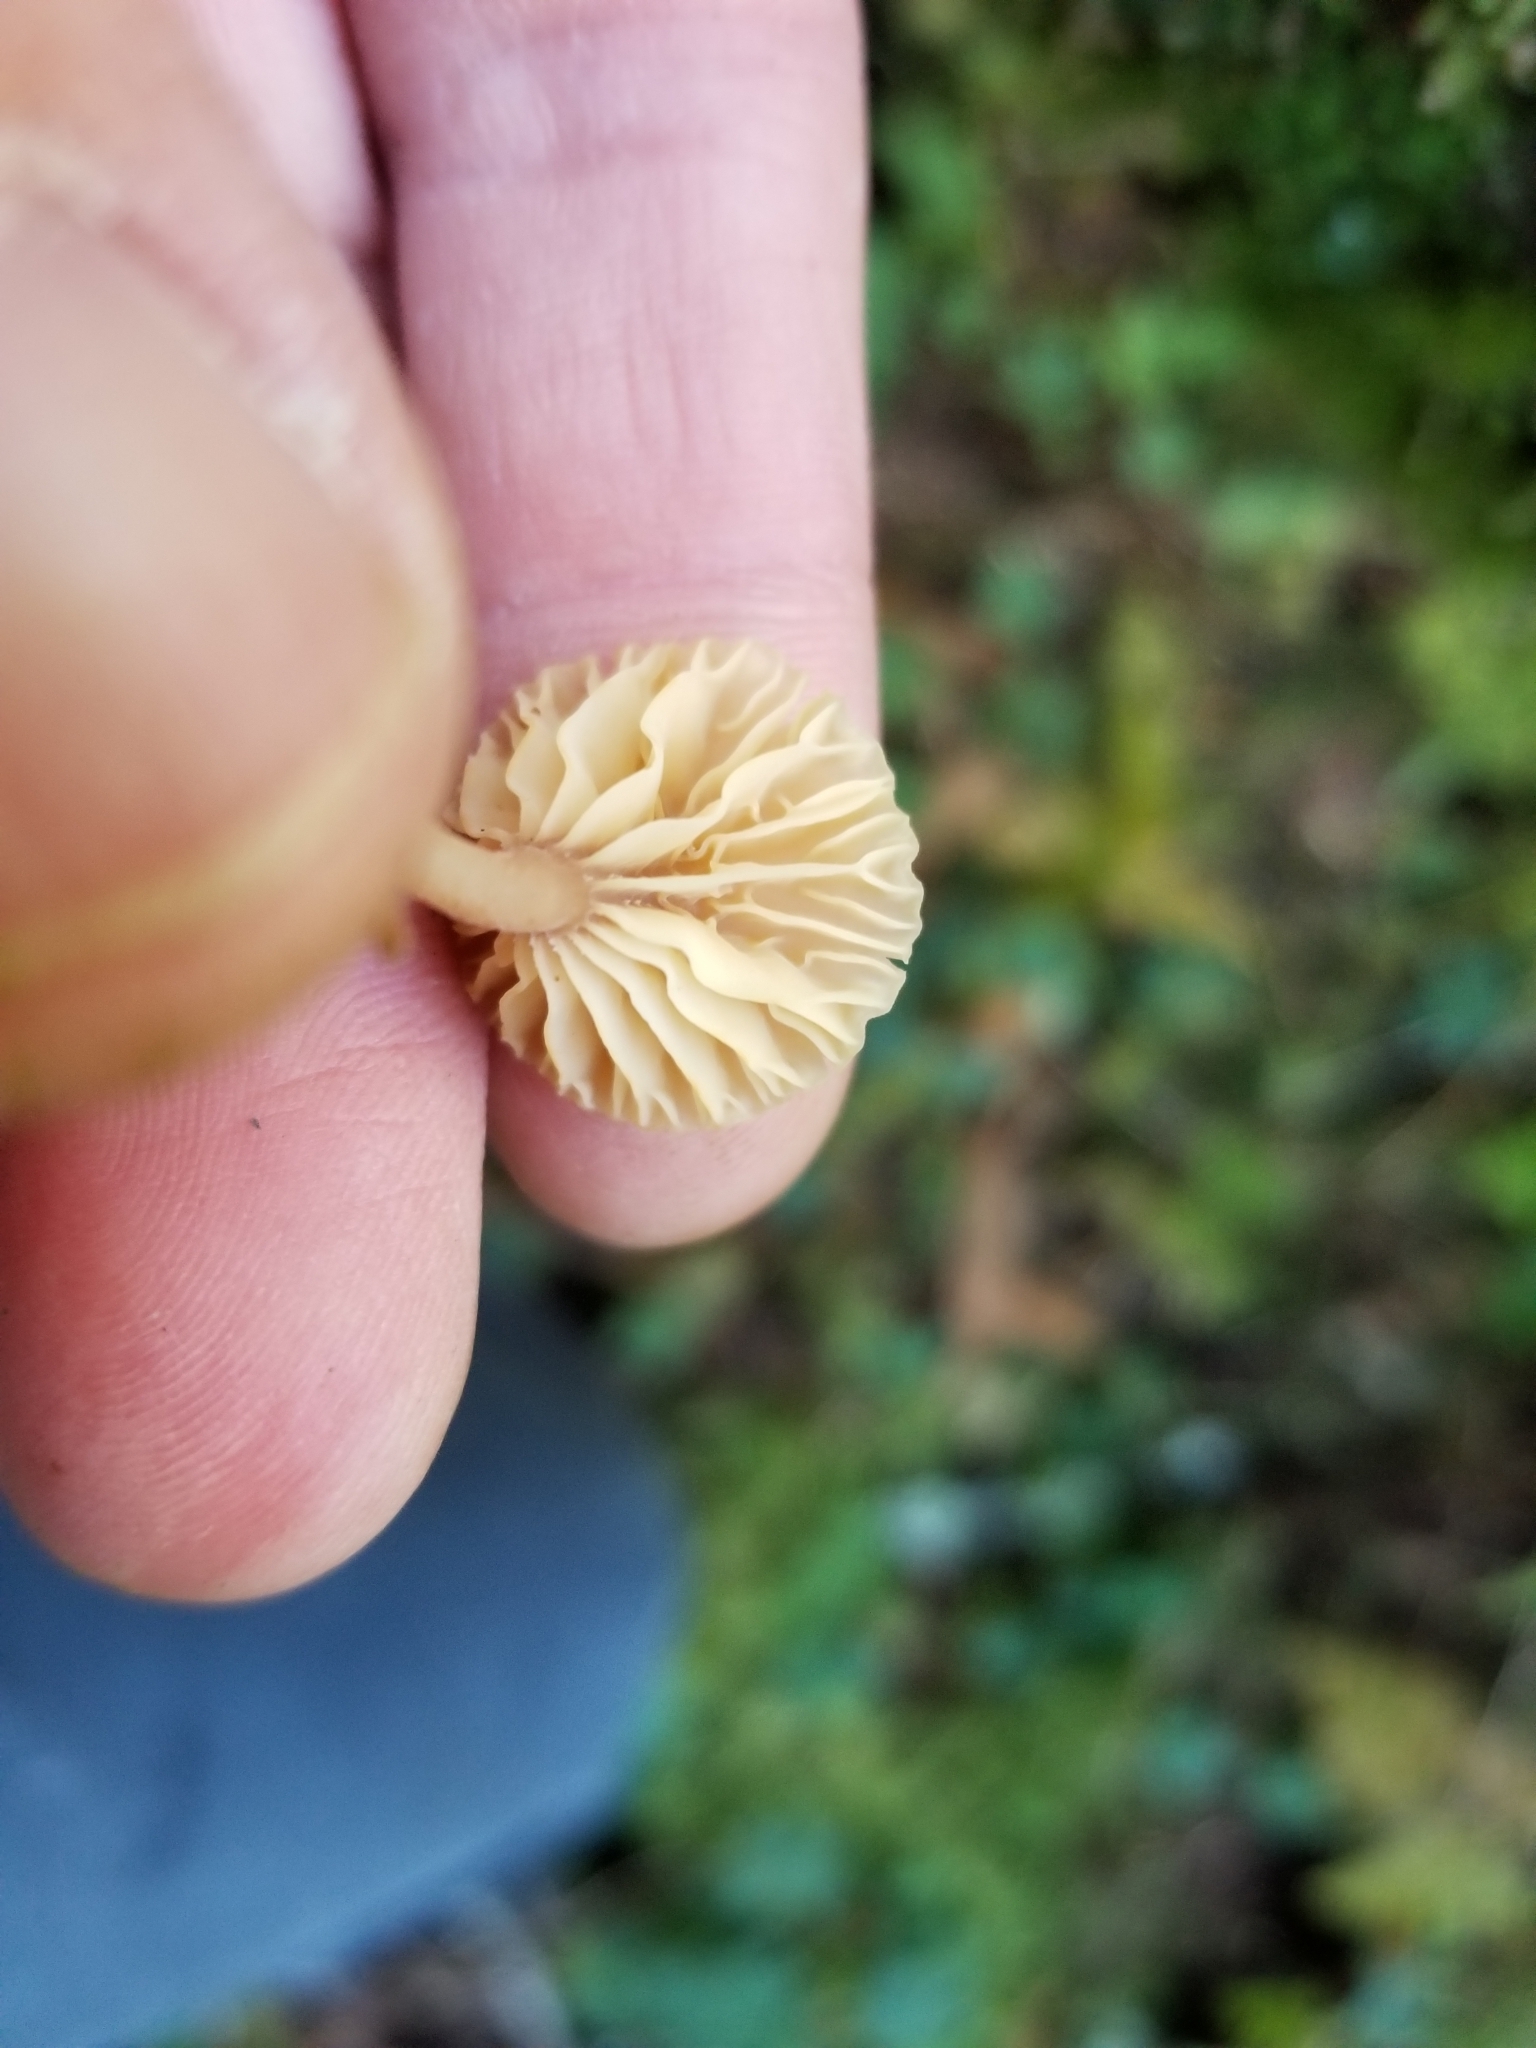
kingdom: Fungi
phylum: Basidiomycota
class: Agaricomycetes
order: Agaricales
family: Hygrophoraceae
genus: Lichenomphalia
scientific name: Lichenomphalia
